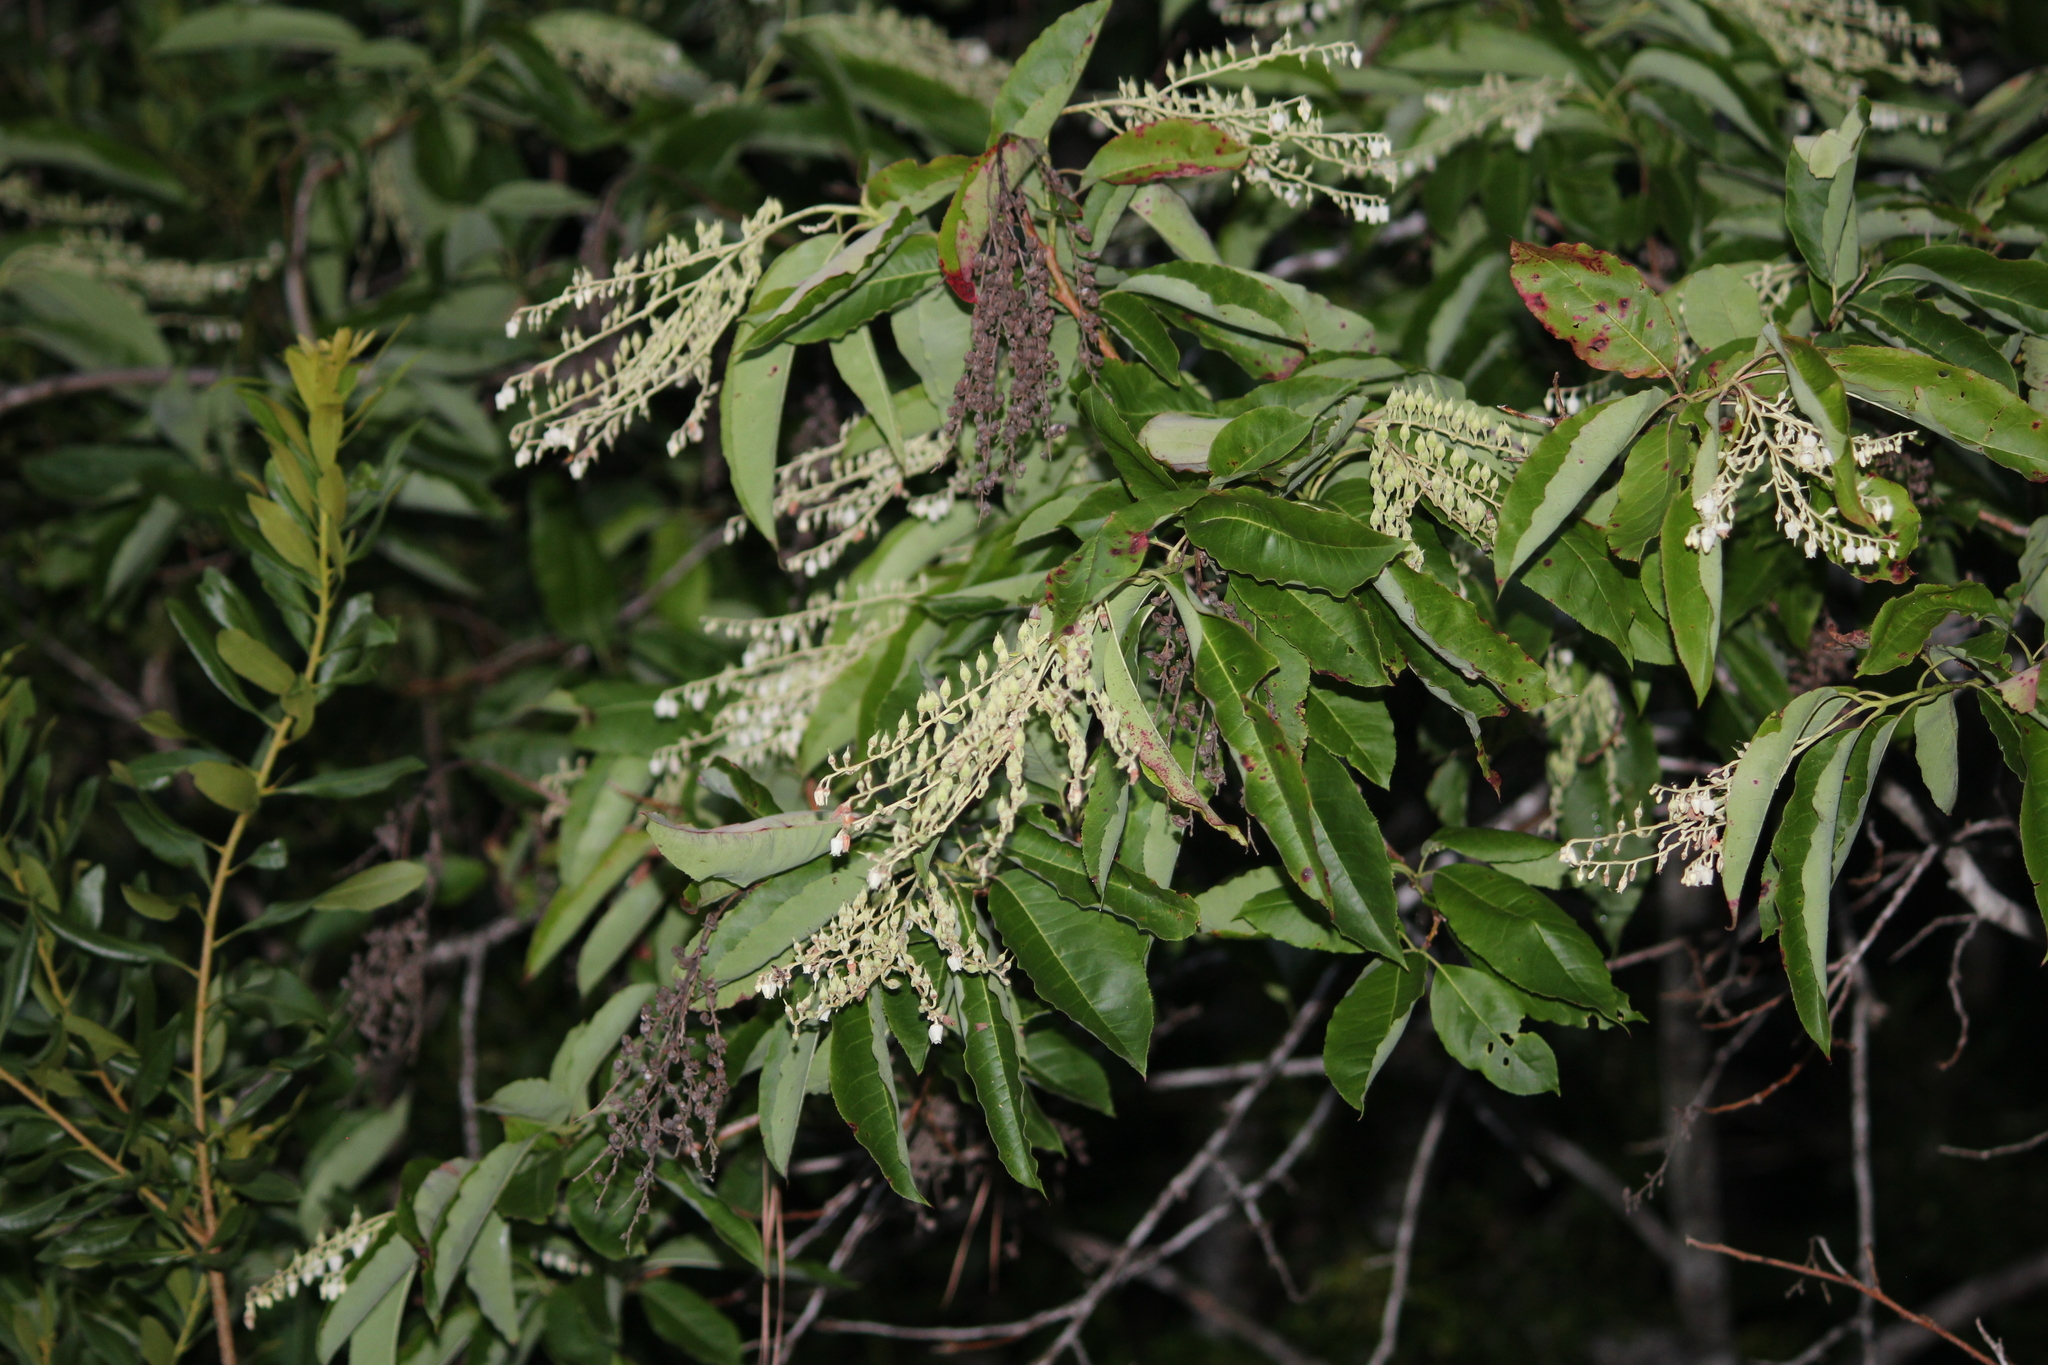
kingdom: Plantae
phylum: Tracheophyta
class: Magnoliopsida
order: Ericales
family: Ericaceae
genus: Oxydendrum
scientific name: Oxydendrum arboreum
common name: Sourwood
